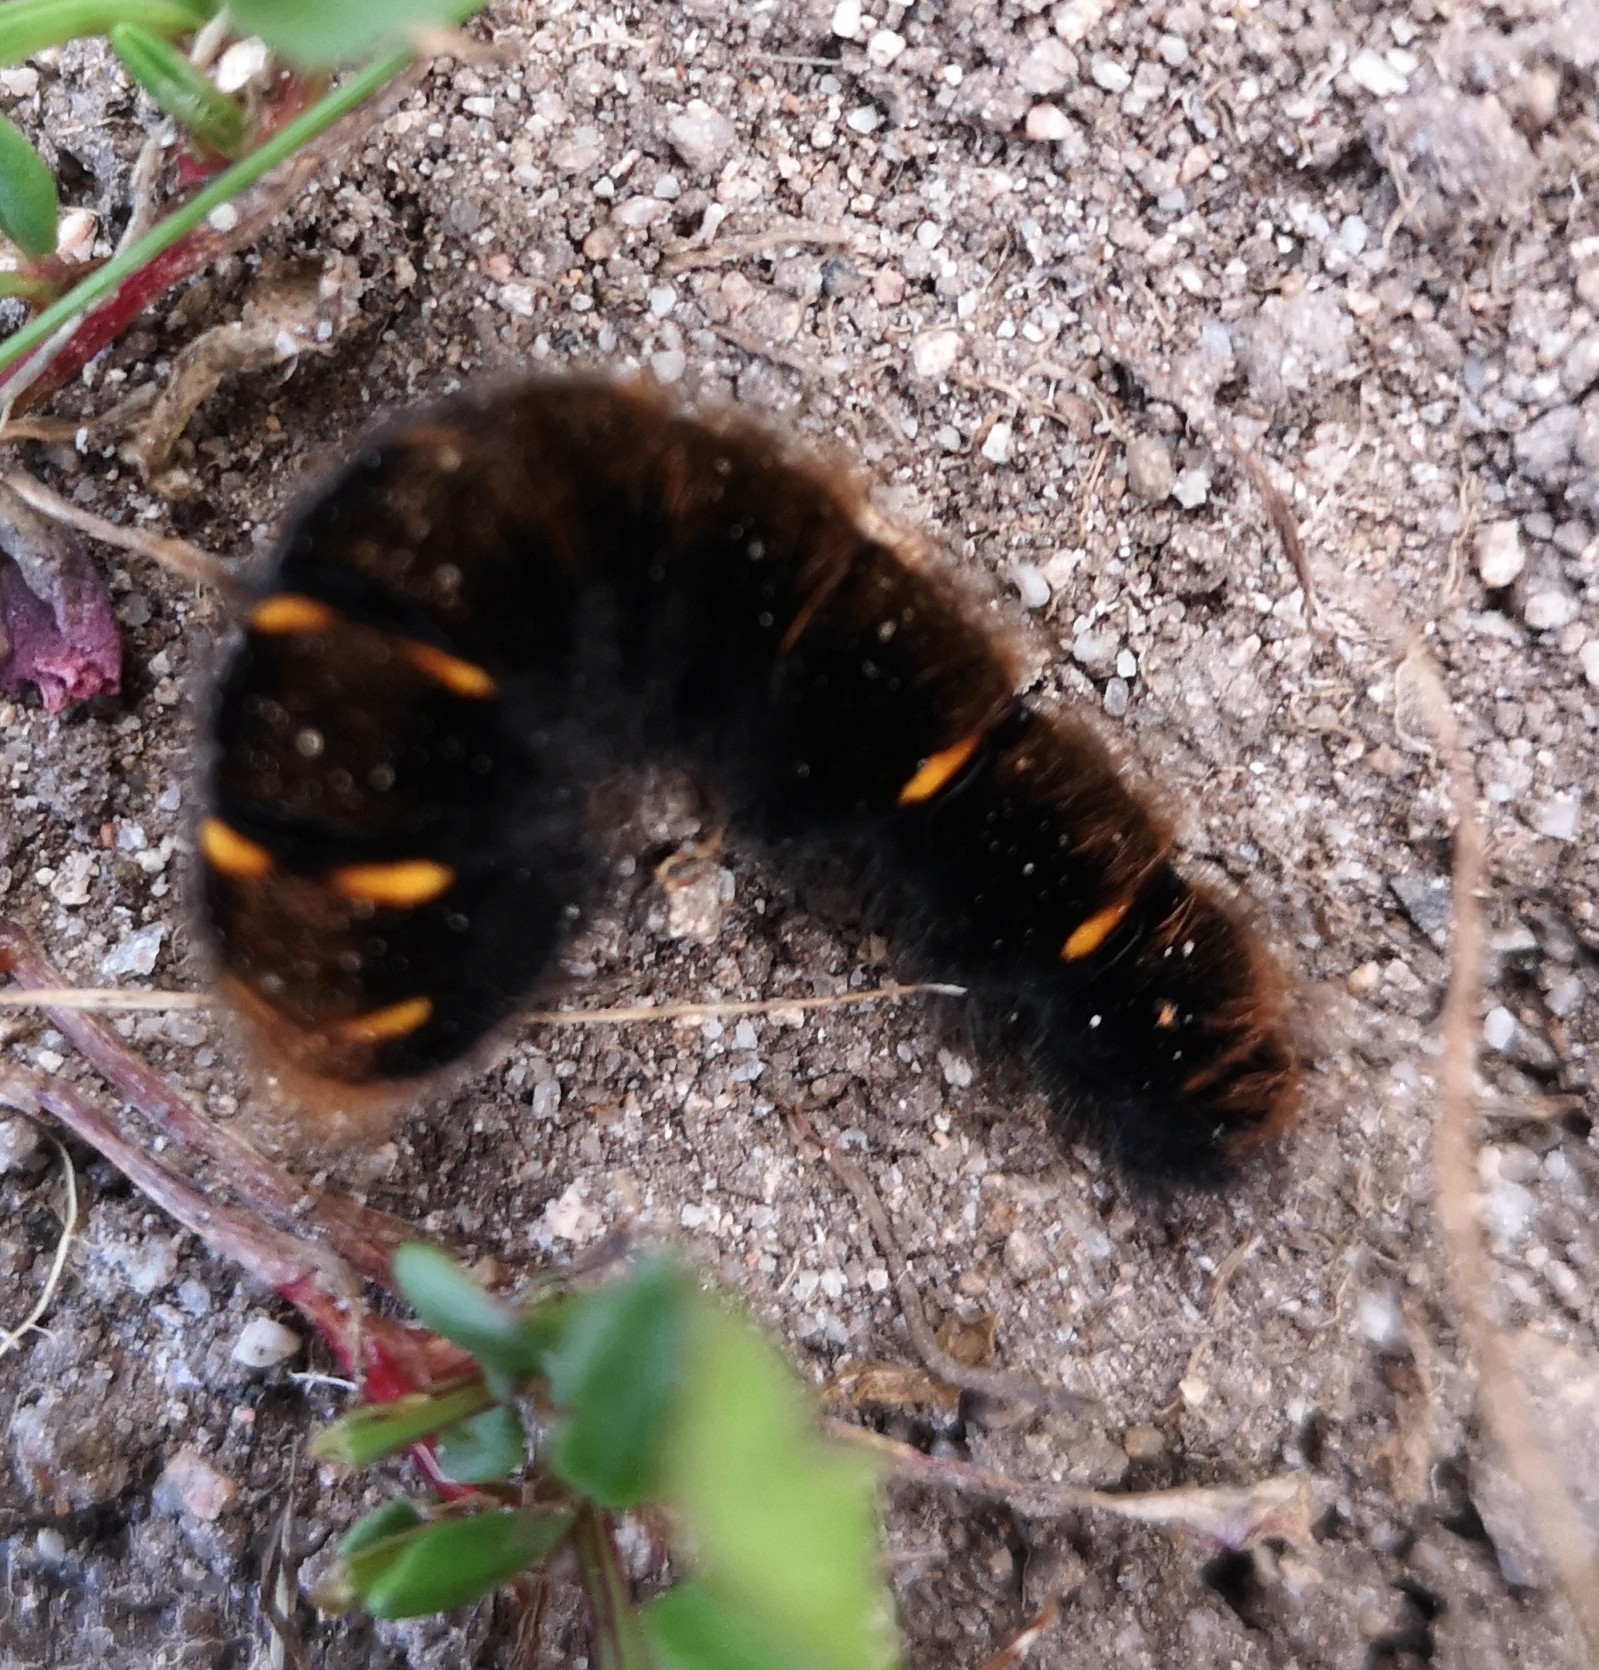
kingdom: Animalia
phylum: Arthropoda
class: Insecta
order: Lepidoptera
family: Lasiocampidae
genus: Macrothylacia
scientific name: Macrothylacia rubi
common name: Fox moth
